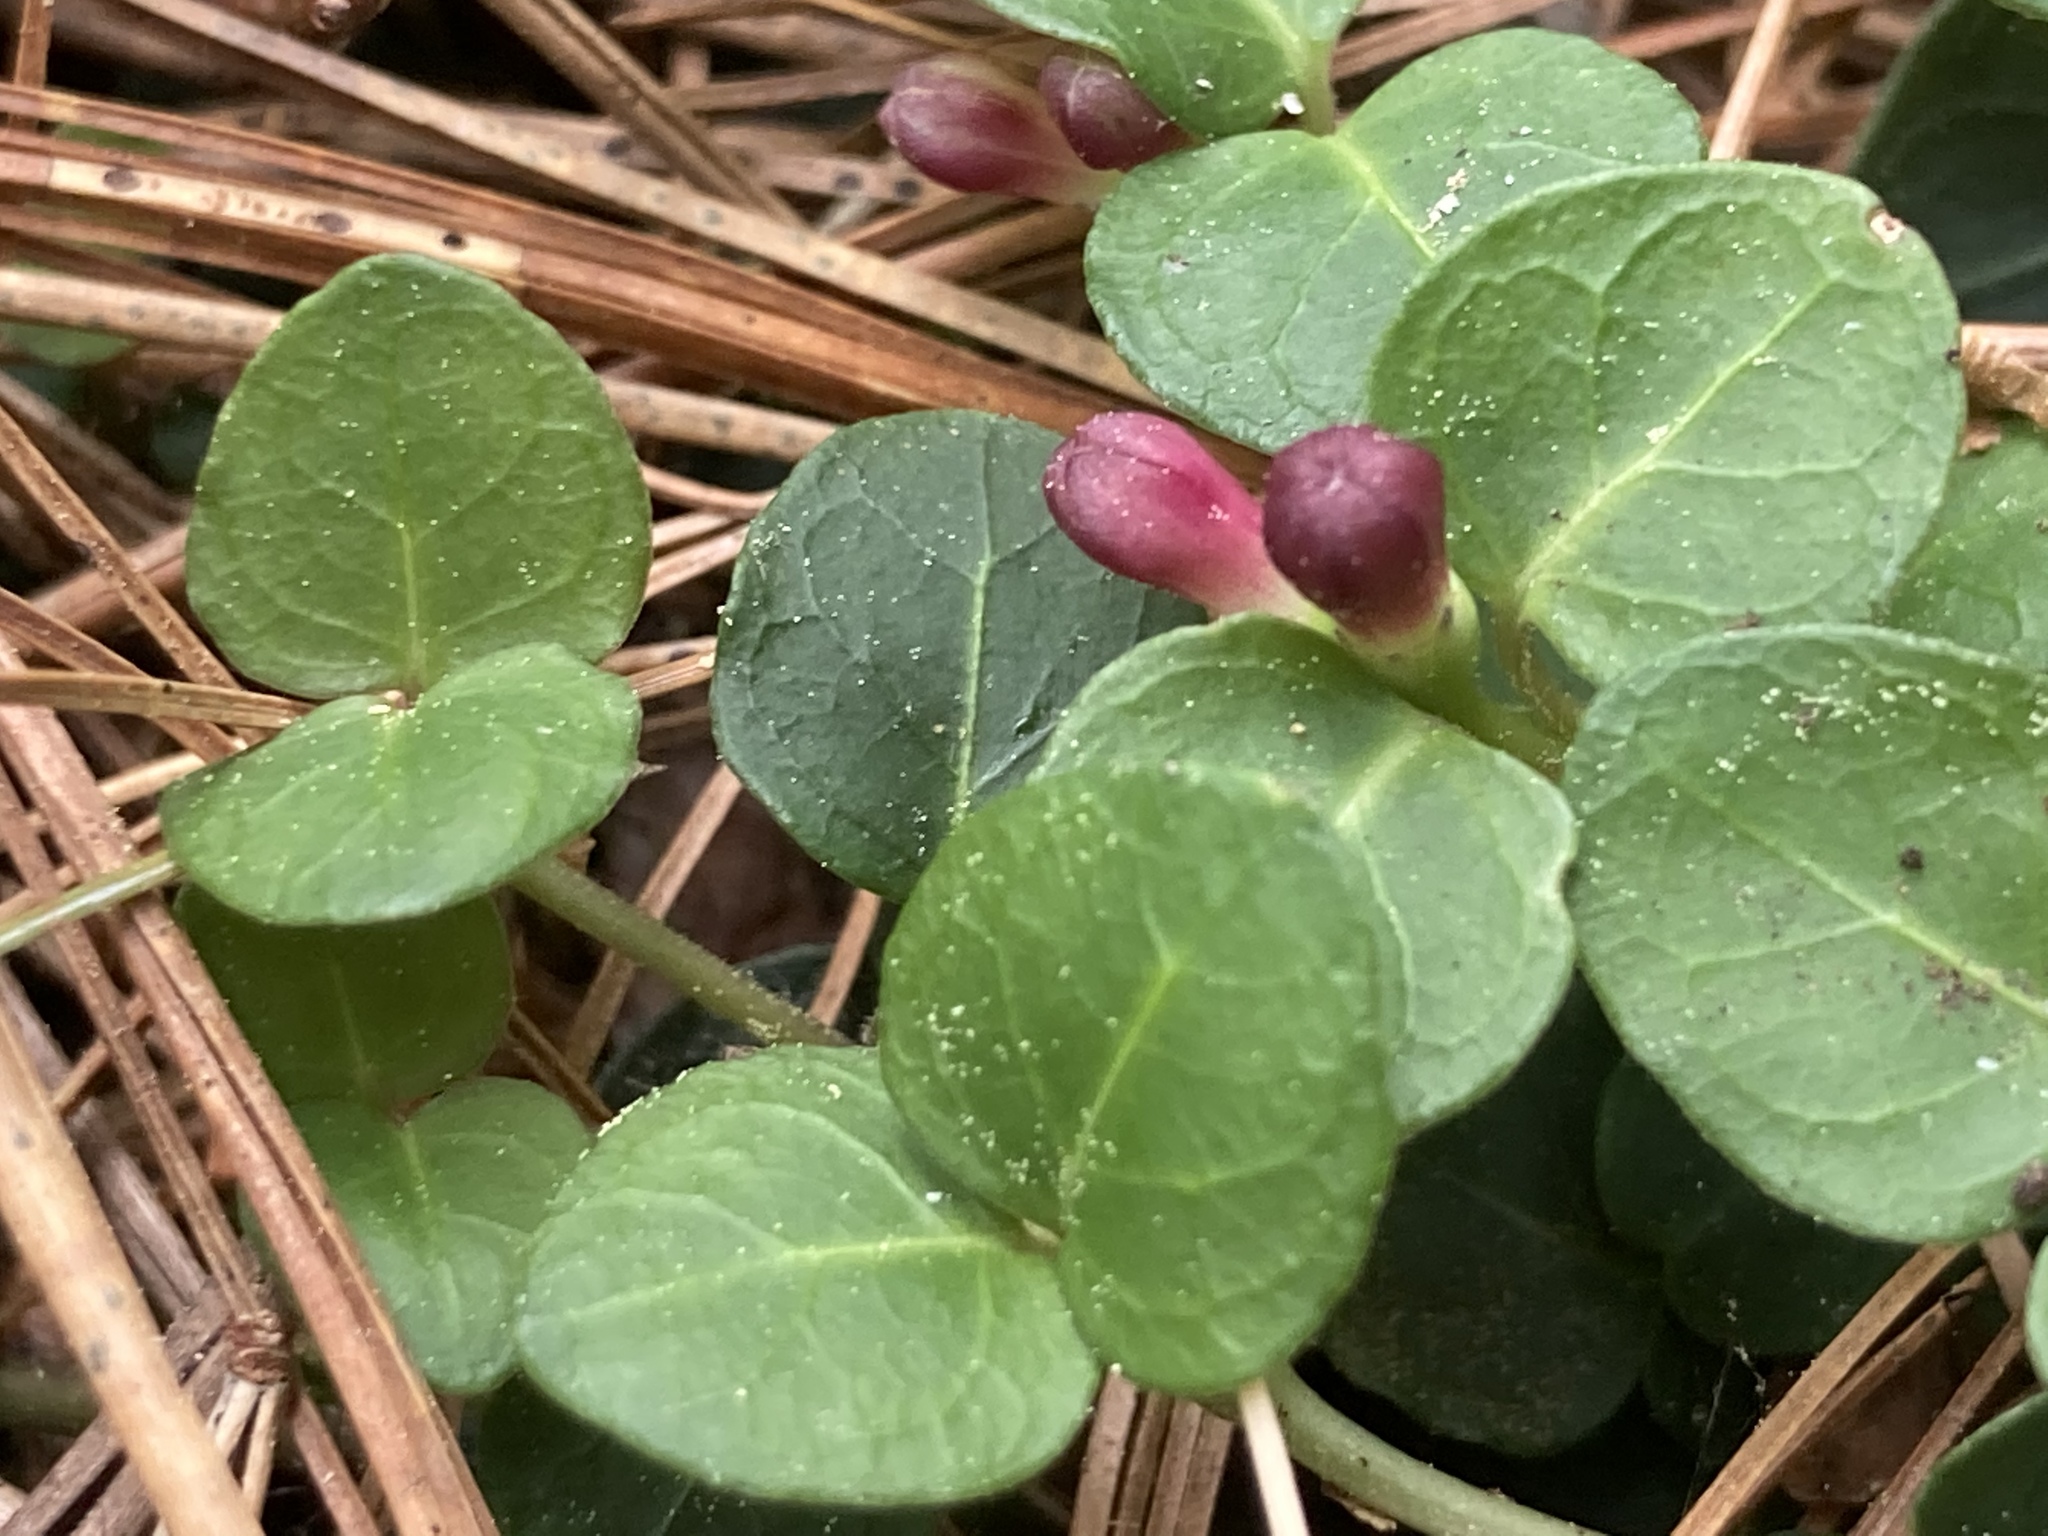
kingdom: Plantae
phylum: Tracheophyta
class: Magnoliopsida
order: Gentianales
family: Rubiaceae
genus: Mitchella
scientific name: Mitchella repens
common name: Partridge-berry
